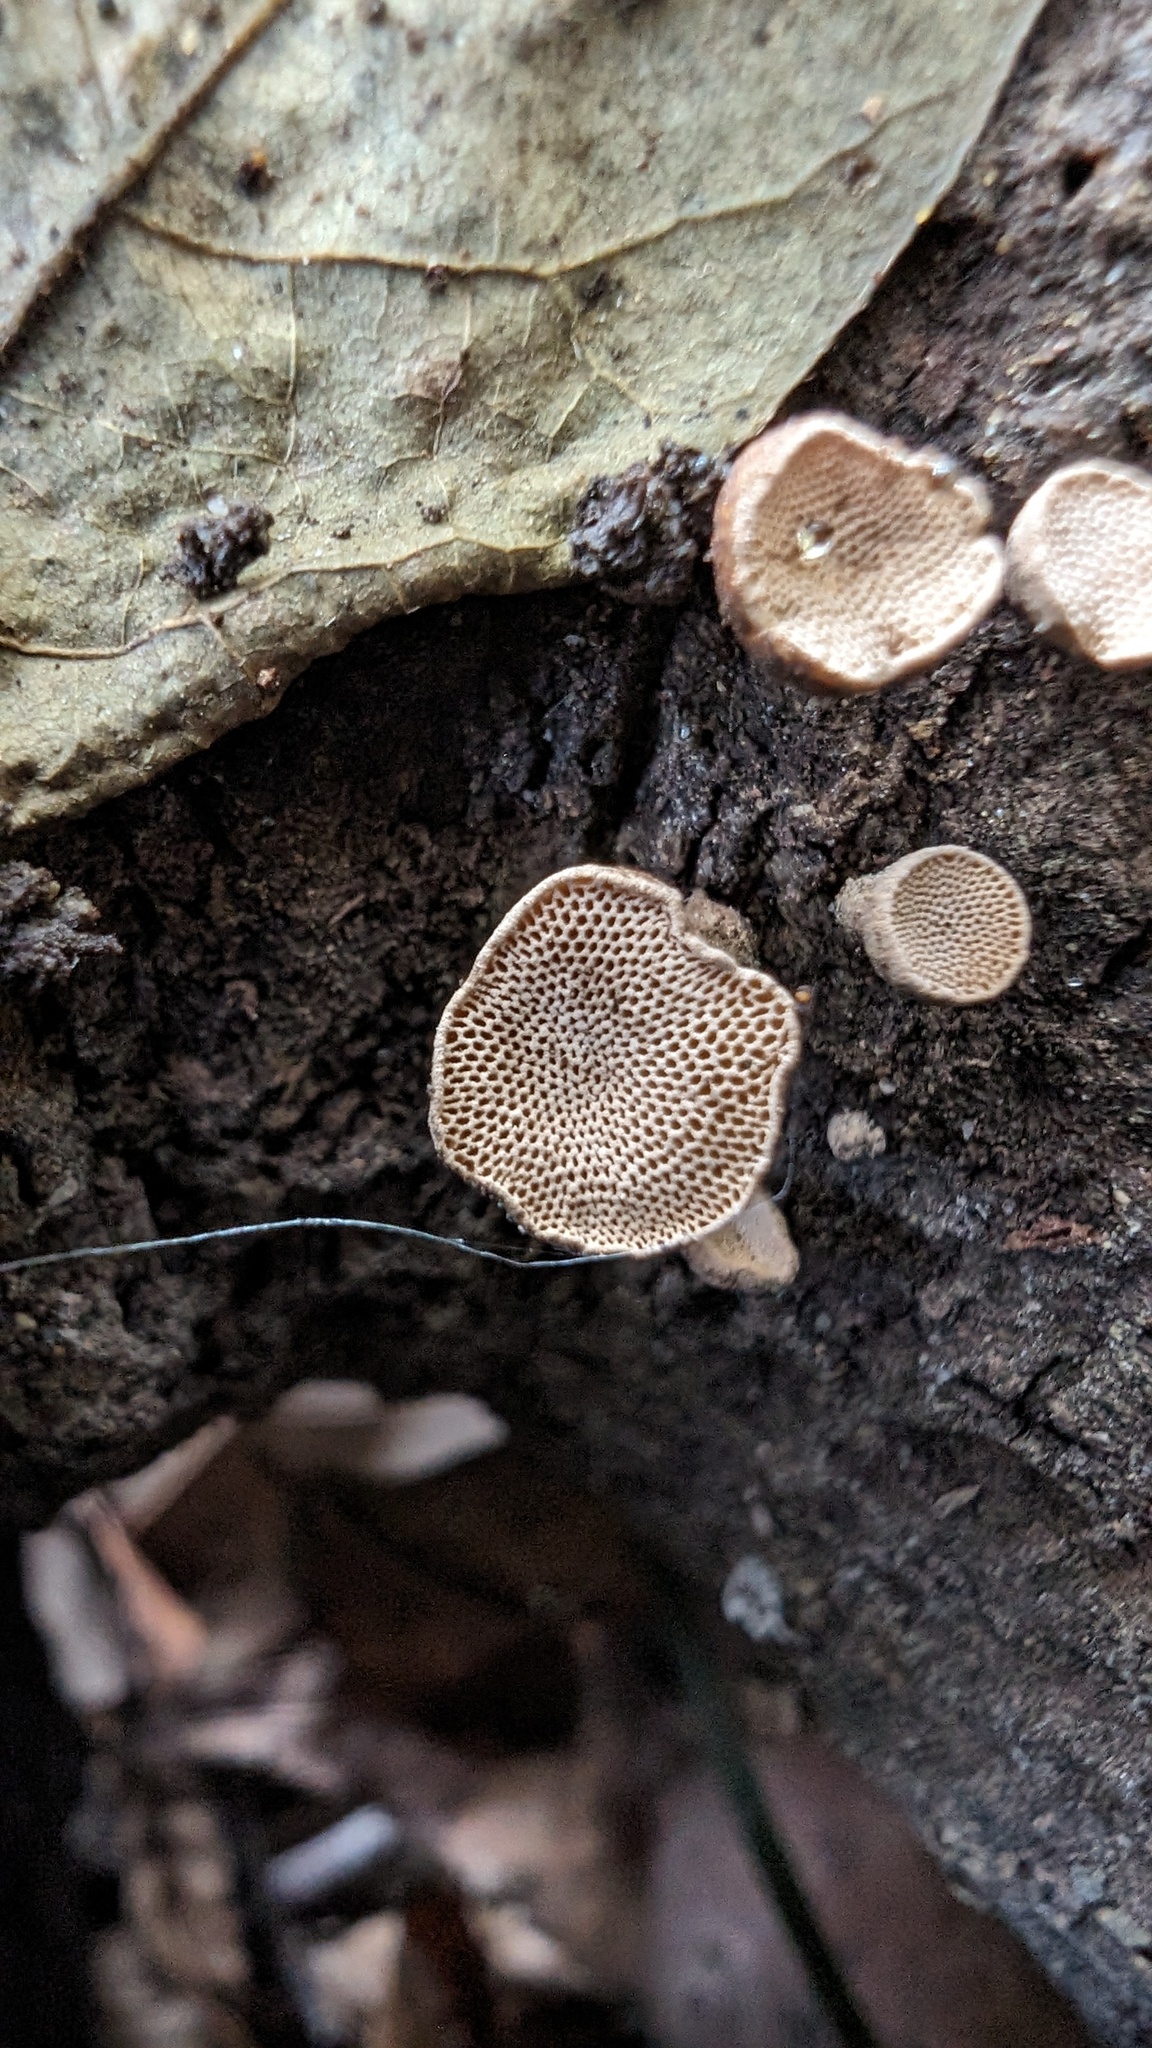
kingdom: Fungi
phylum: Basidiomycota
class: Agaricomycetes
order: Agaricales
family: Schizophyllaceae
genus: Porodisculus
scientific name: Porodisculus pendulus
